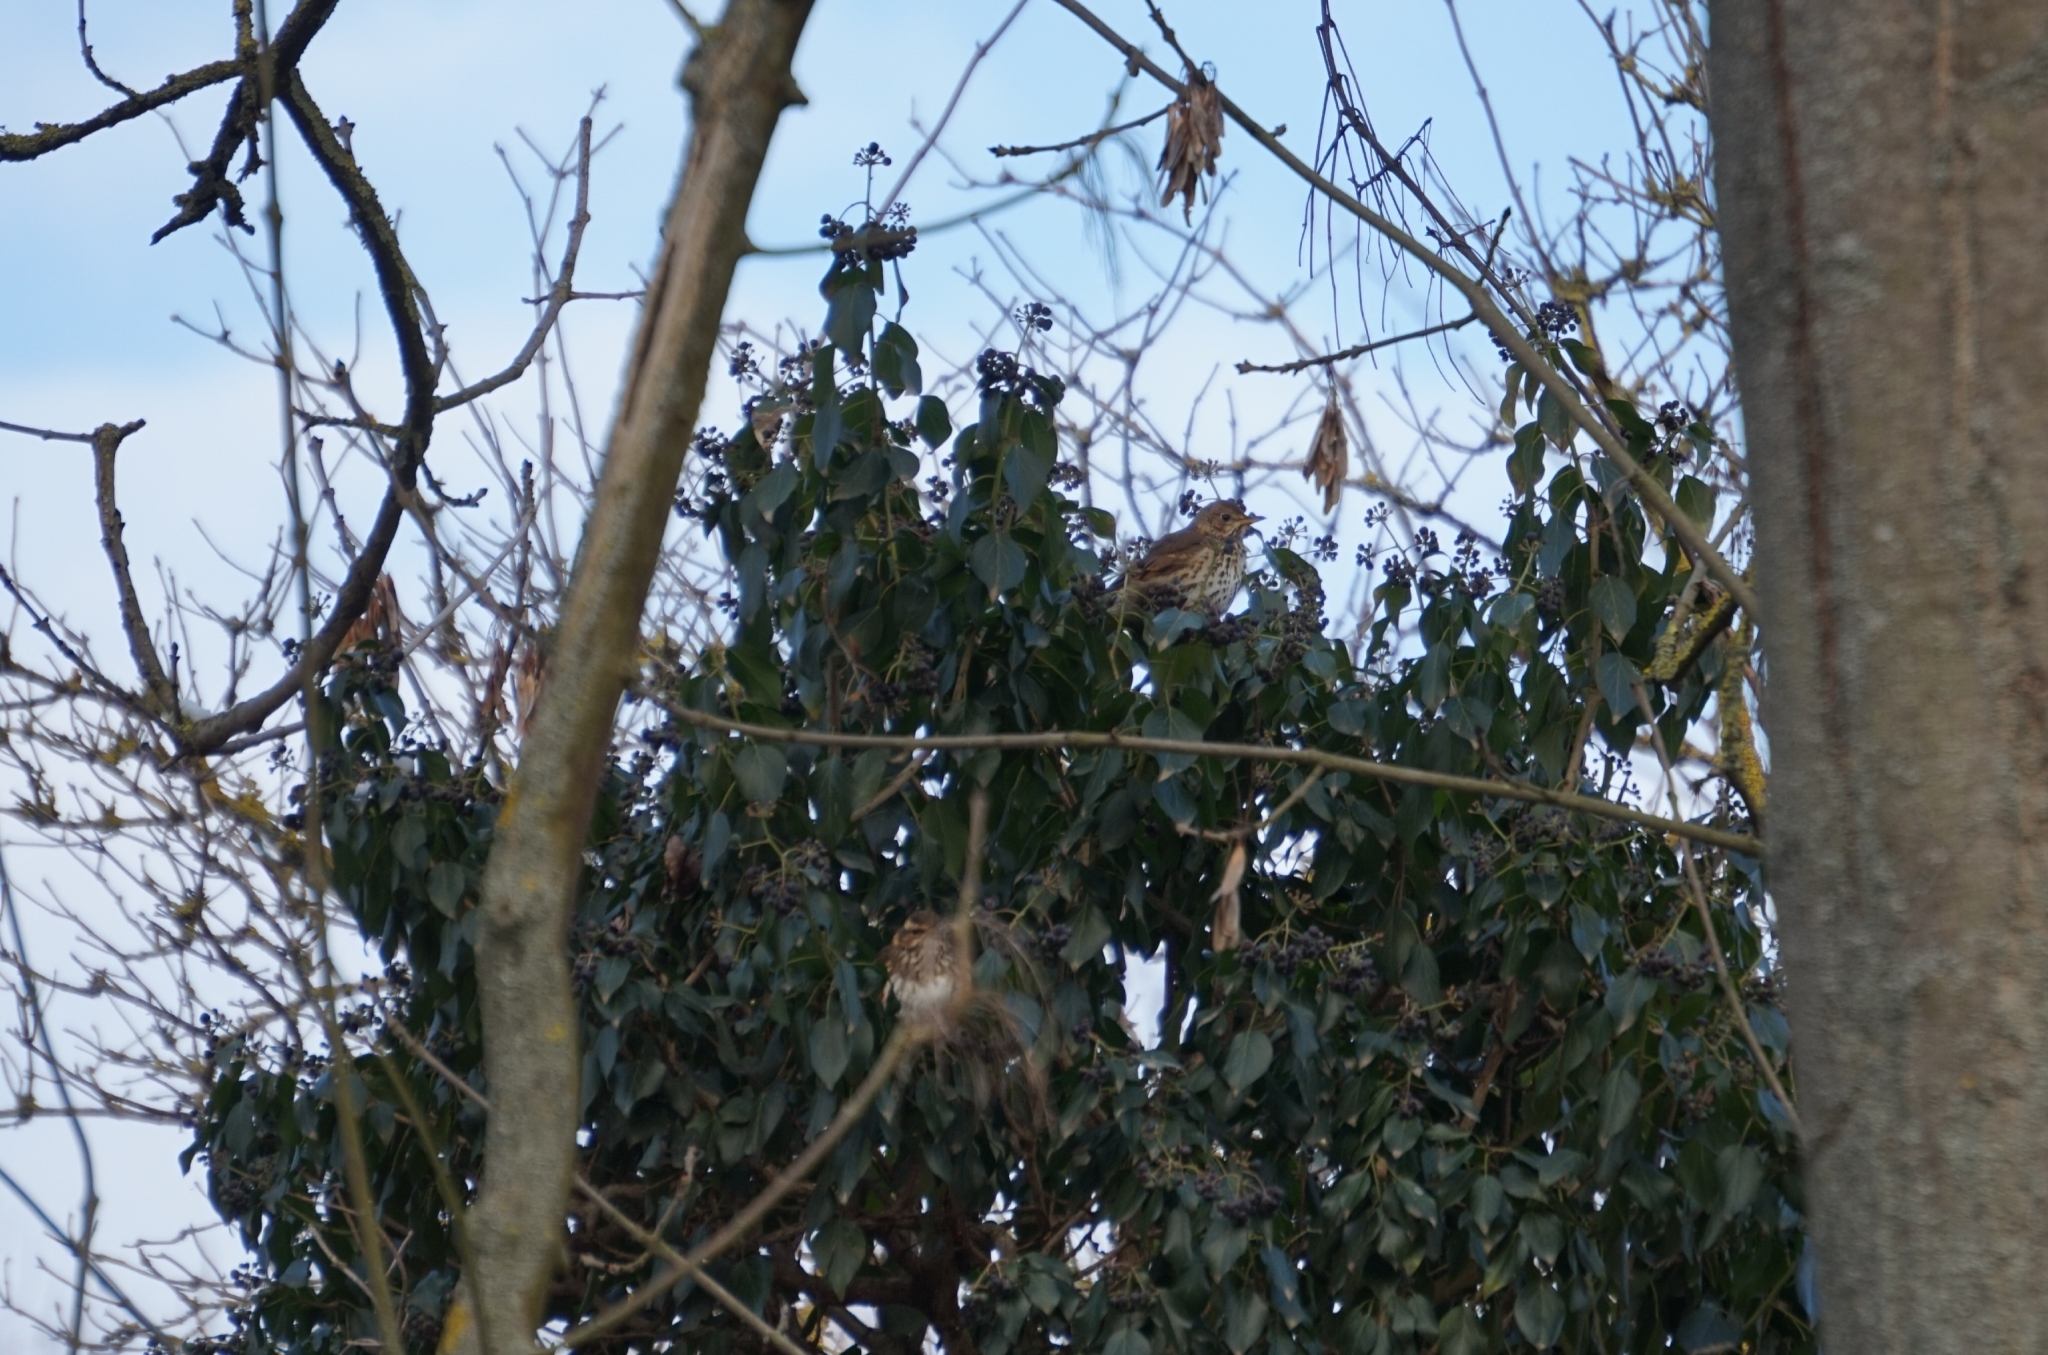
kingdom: Animalia
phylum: Chordata
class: Aves
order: Passeriformes
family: Turdidae
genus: Turdus
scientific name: Turdus philomelos
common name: Song thrush
